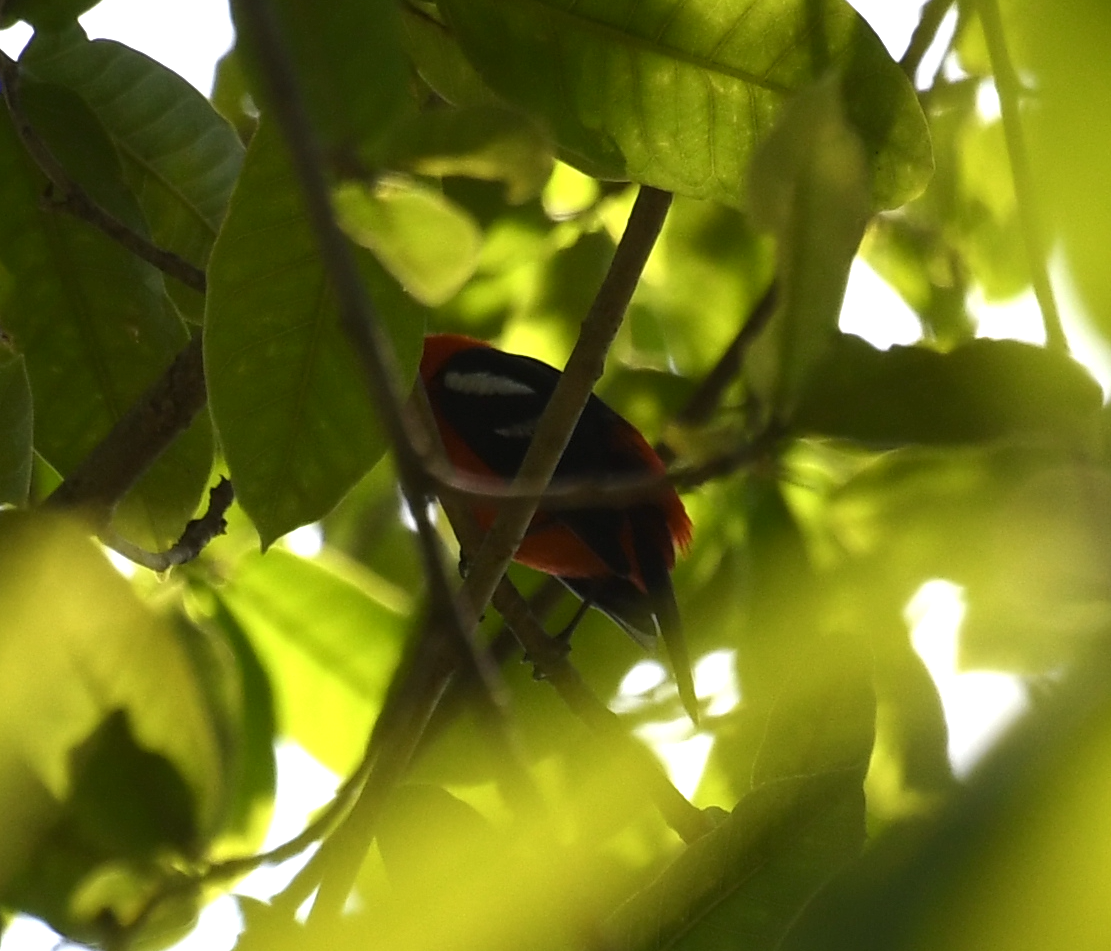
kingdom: Animalia
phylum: Chordata
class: Aves
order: Passeriformes
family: Cardinalidae
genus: Piranga
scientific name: Piranga leucoptera
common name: White-winged tanager
